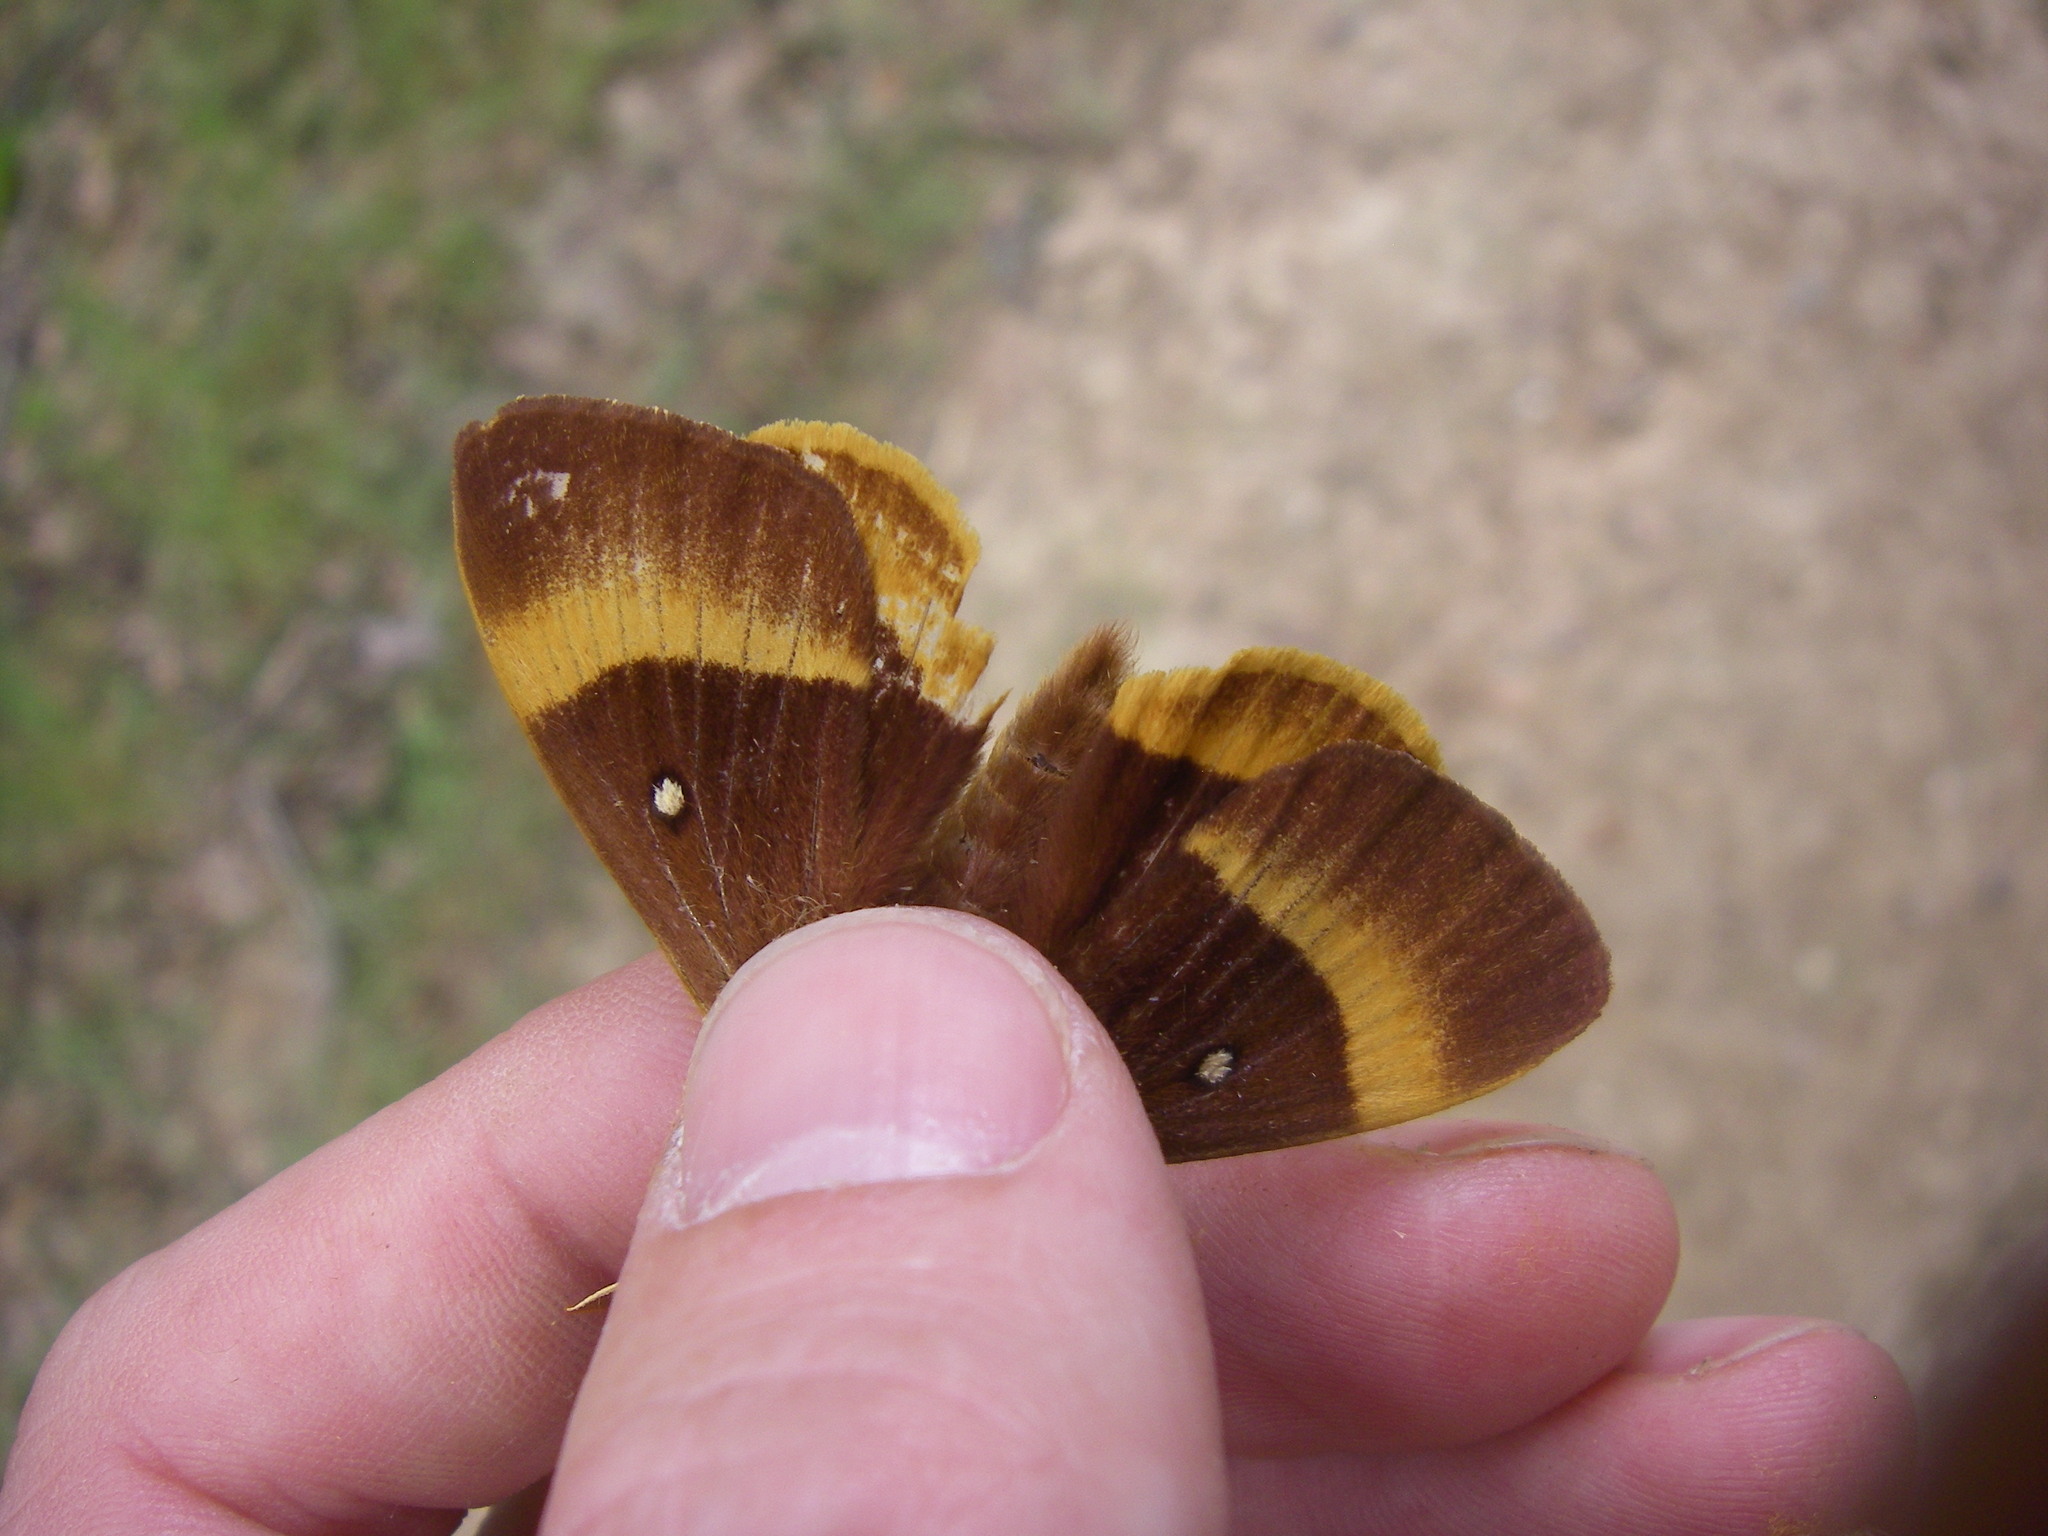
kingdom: Animalia
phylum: Arthropoda
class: Insecta
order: Lepidoptera
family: Lasiocampidae
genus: Lasiocampa
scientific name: Lasiocampa quercus
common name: Oak eggar
